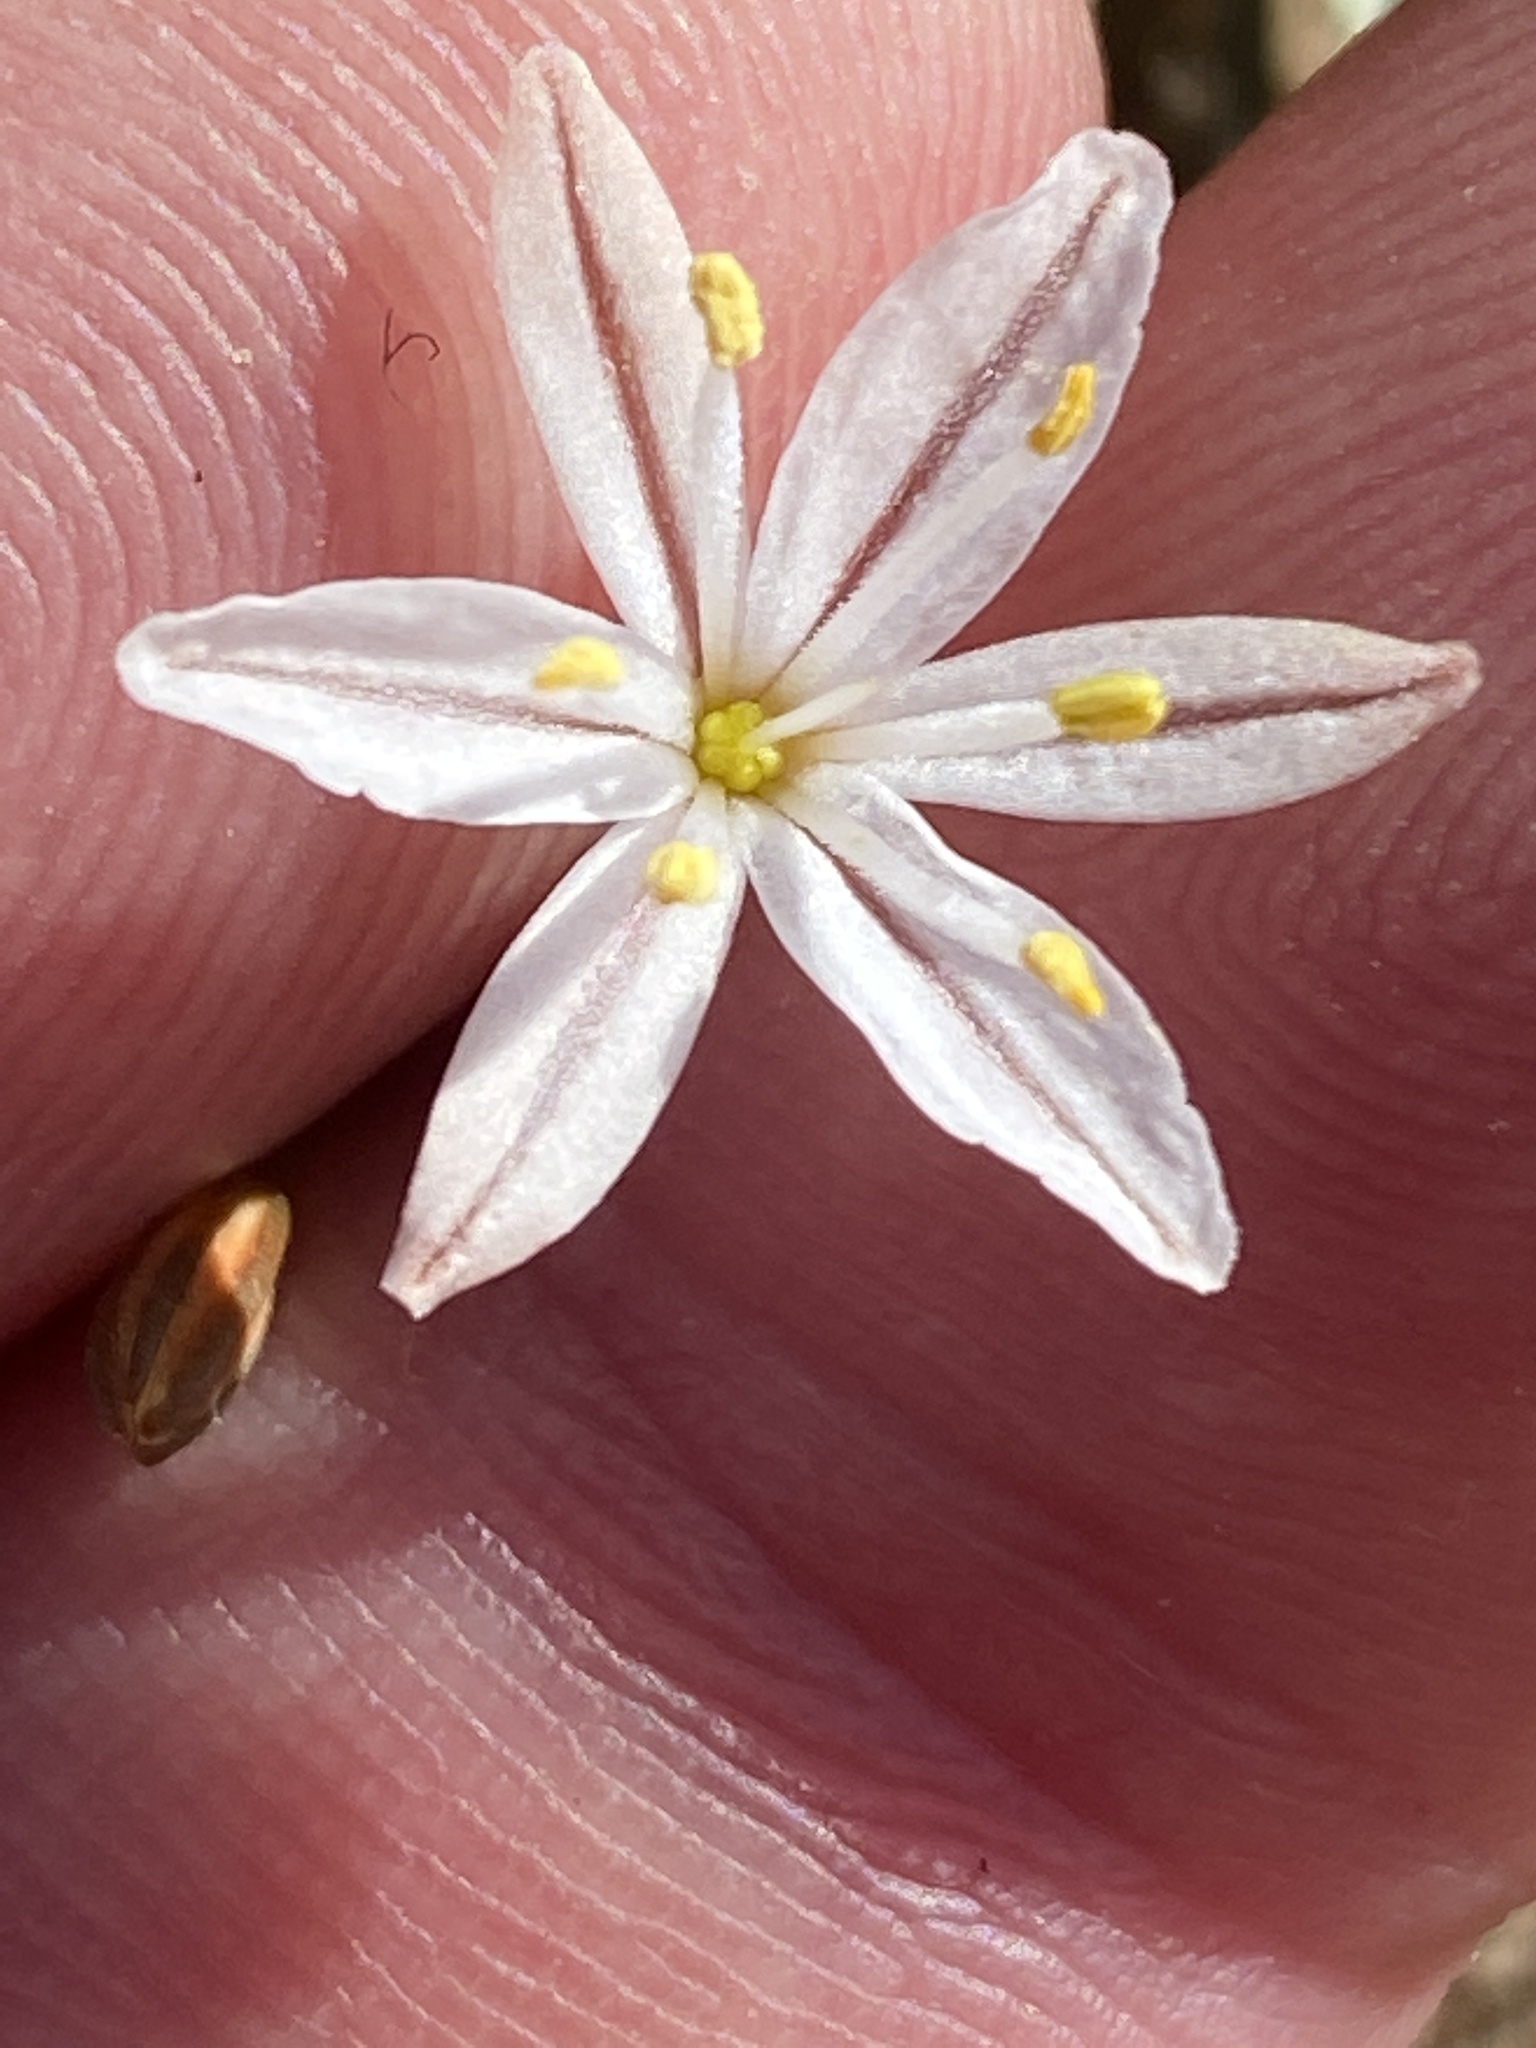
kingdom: Plantae
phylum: Tracheophyta
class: Liliopsida
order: Asparagales
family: Asphodelaceae
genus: Trachyandra
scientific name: Trachyandra affinis
